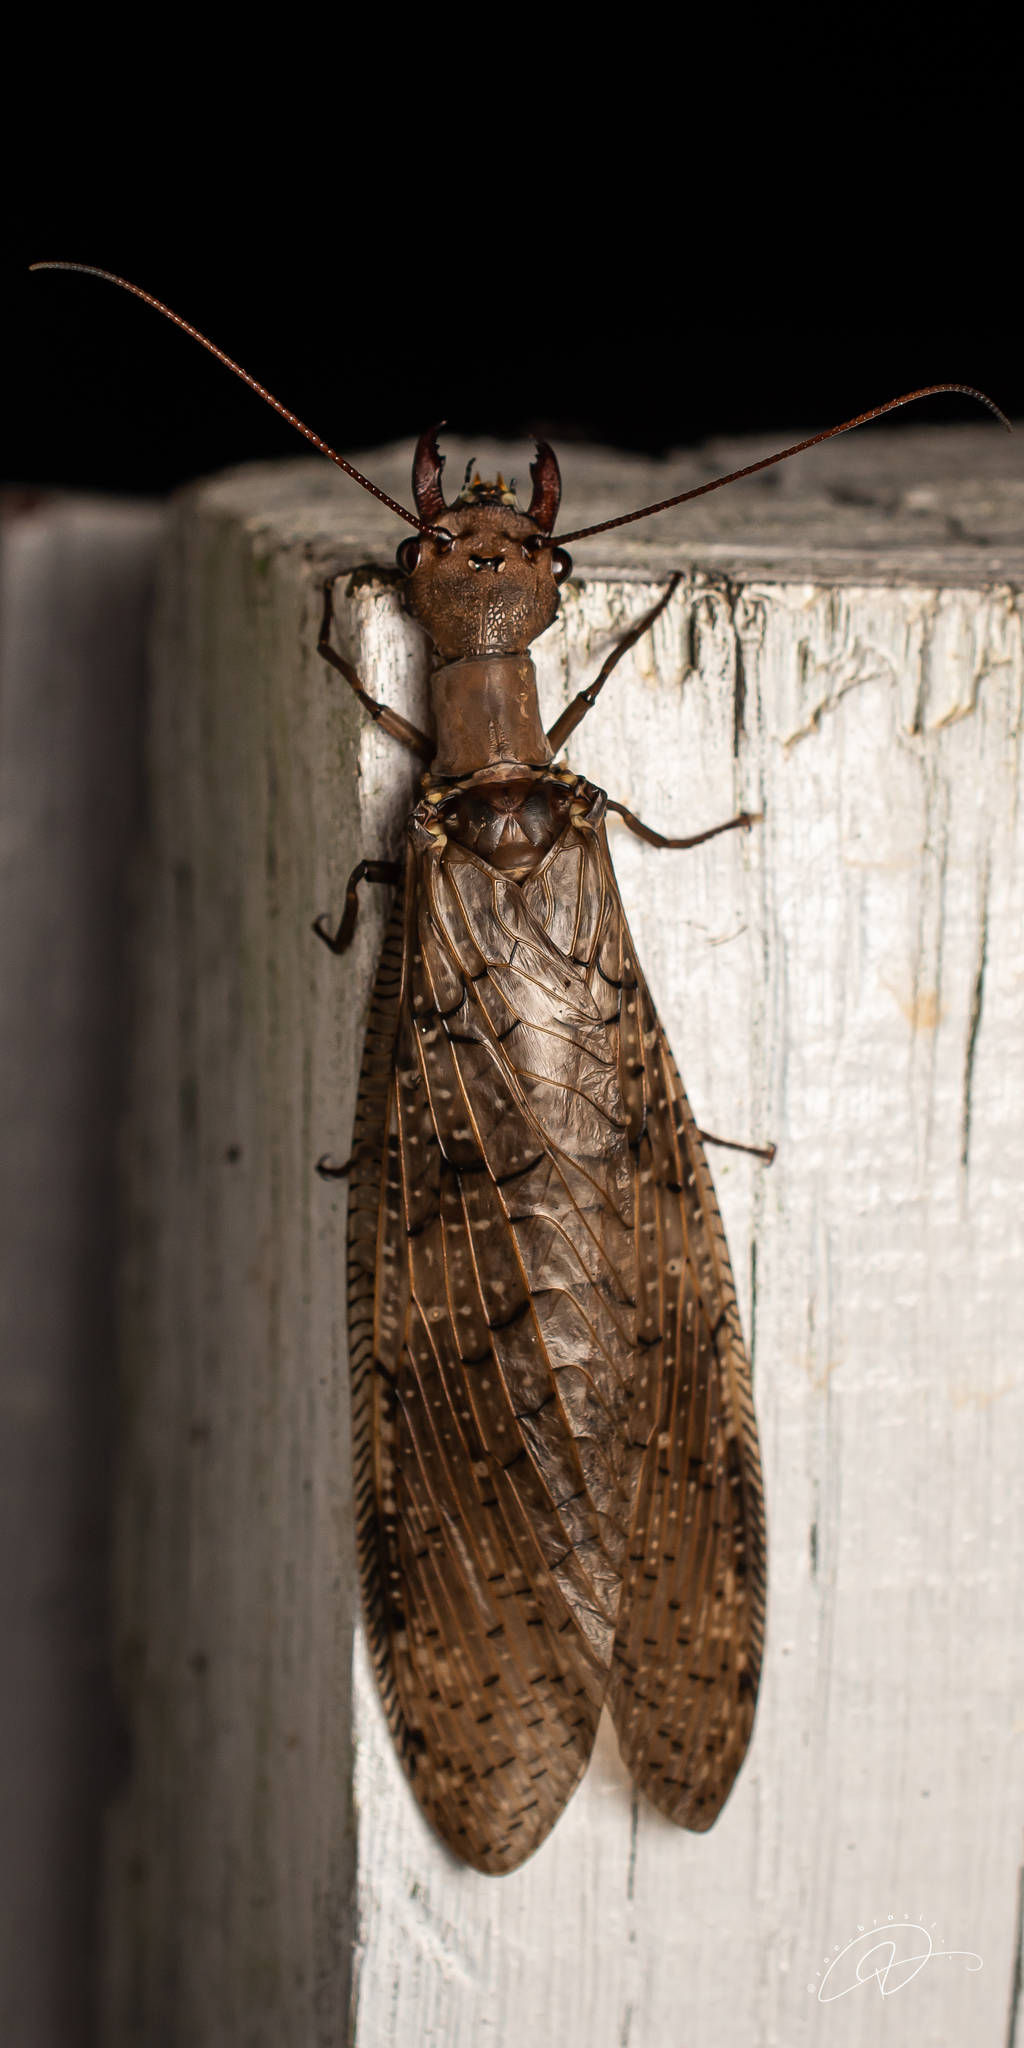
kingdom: Animalia
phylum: Arthropoda
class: Insecta
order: Megaloptera
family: Corydalidae
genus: Corydalus
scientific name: Corydalus australis
